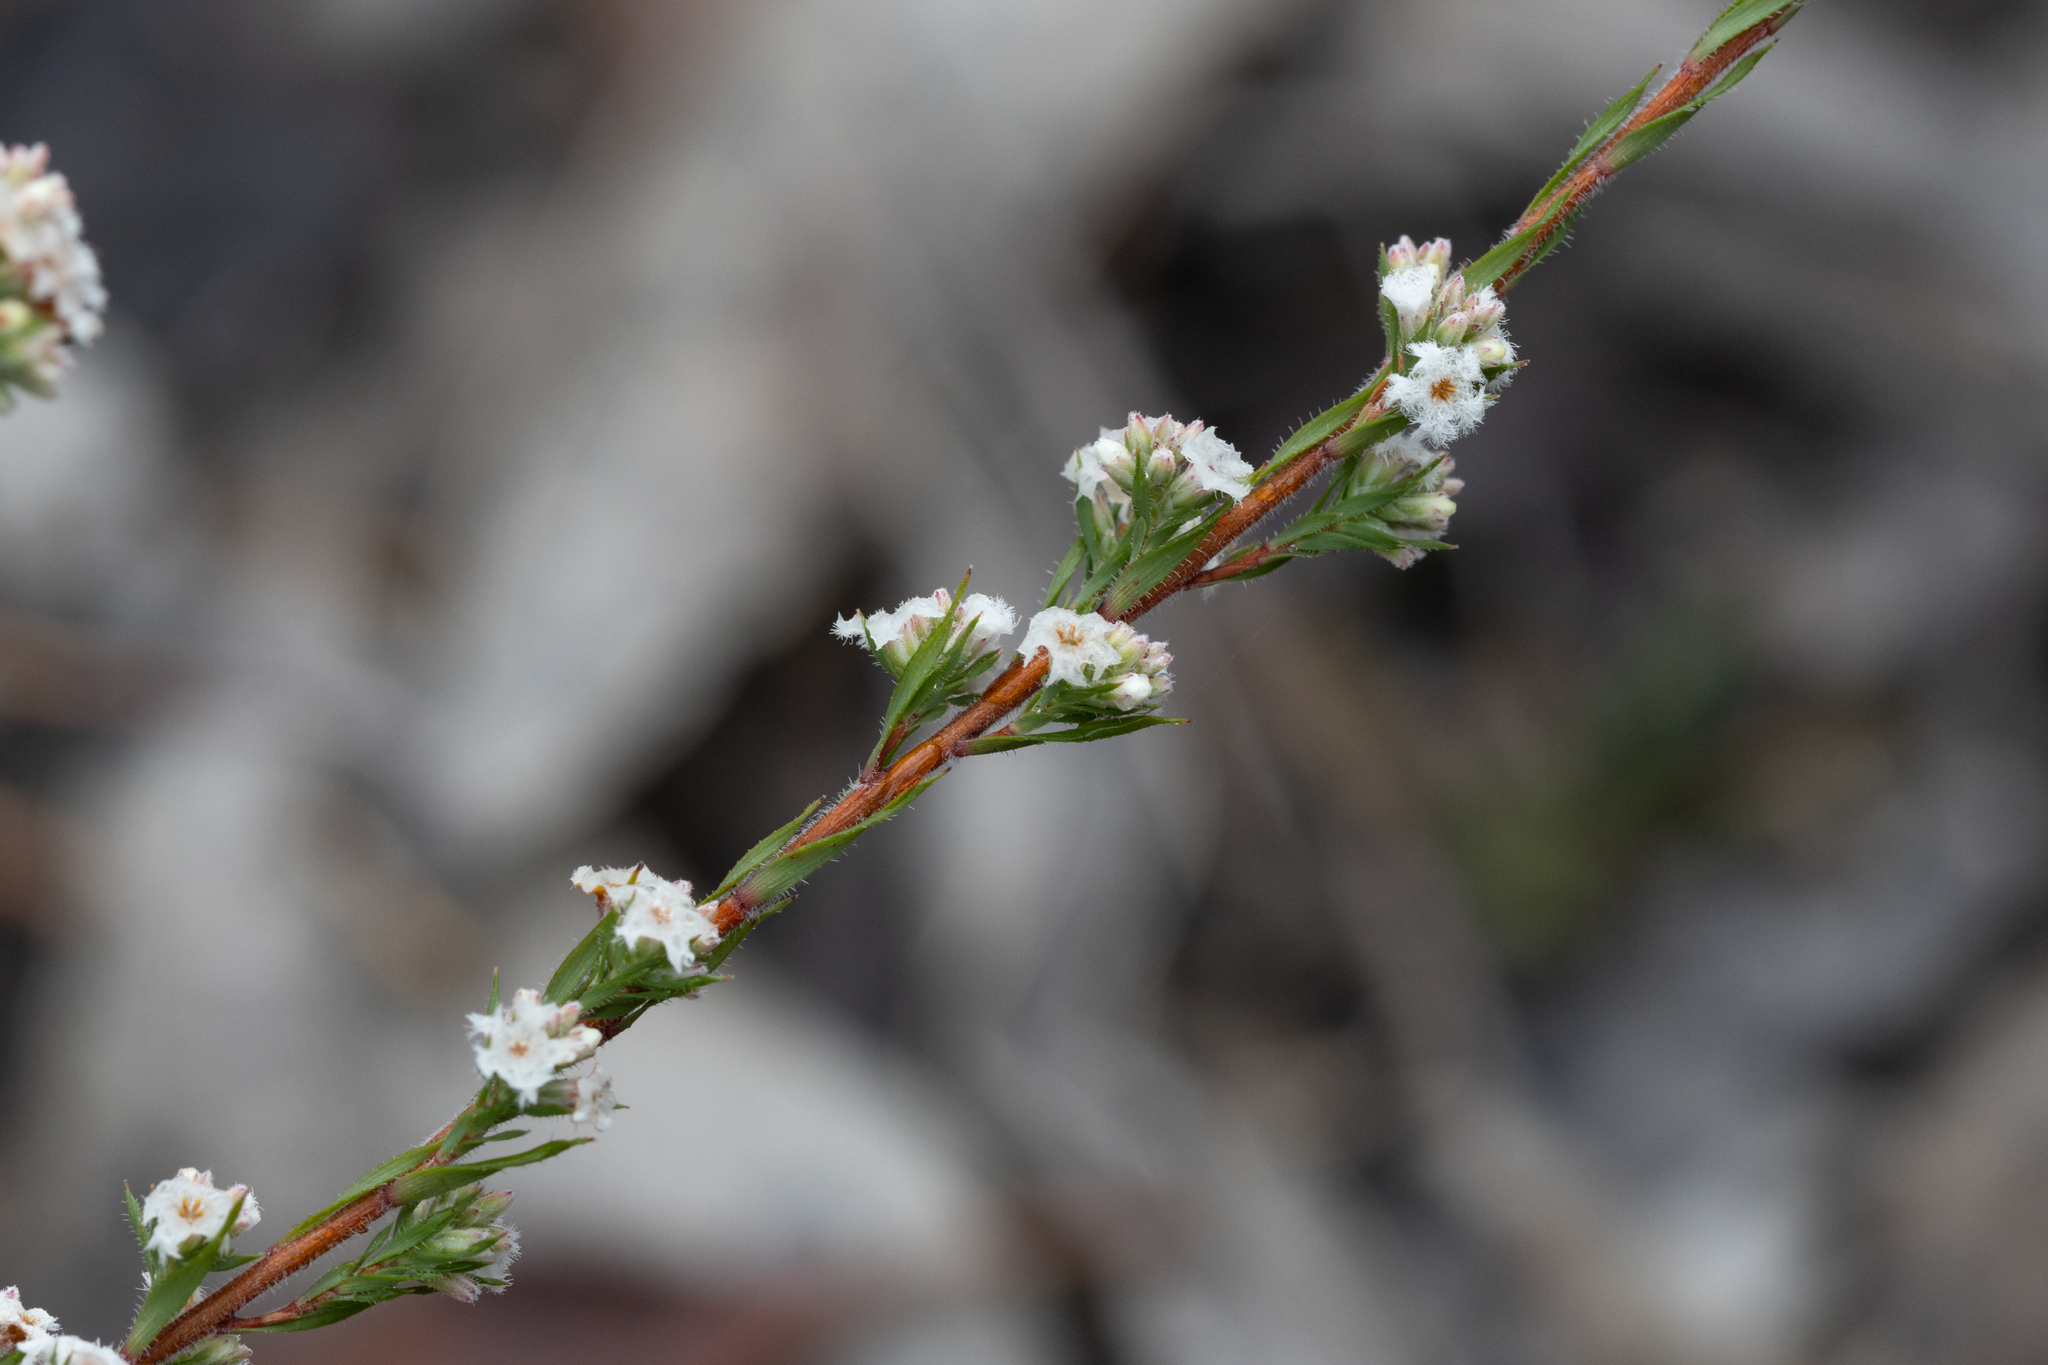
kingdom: Plantae
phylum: Tracheophyta
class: Magnoliopsida
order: Ericales
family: Ericaceae
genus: Leucopogon
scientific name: Leucopogon glacialis
